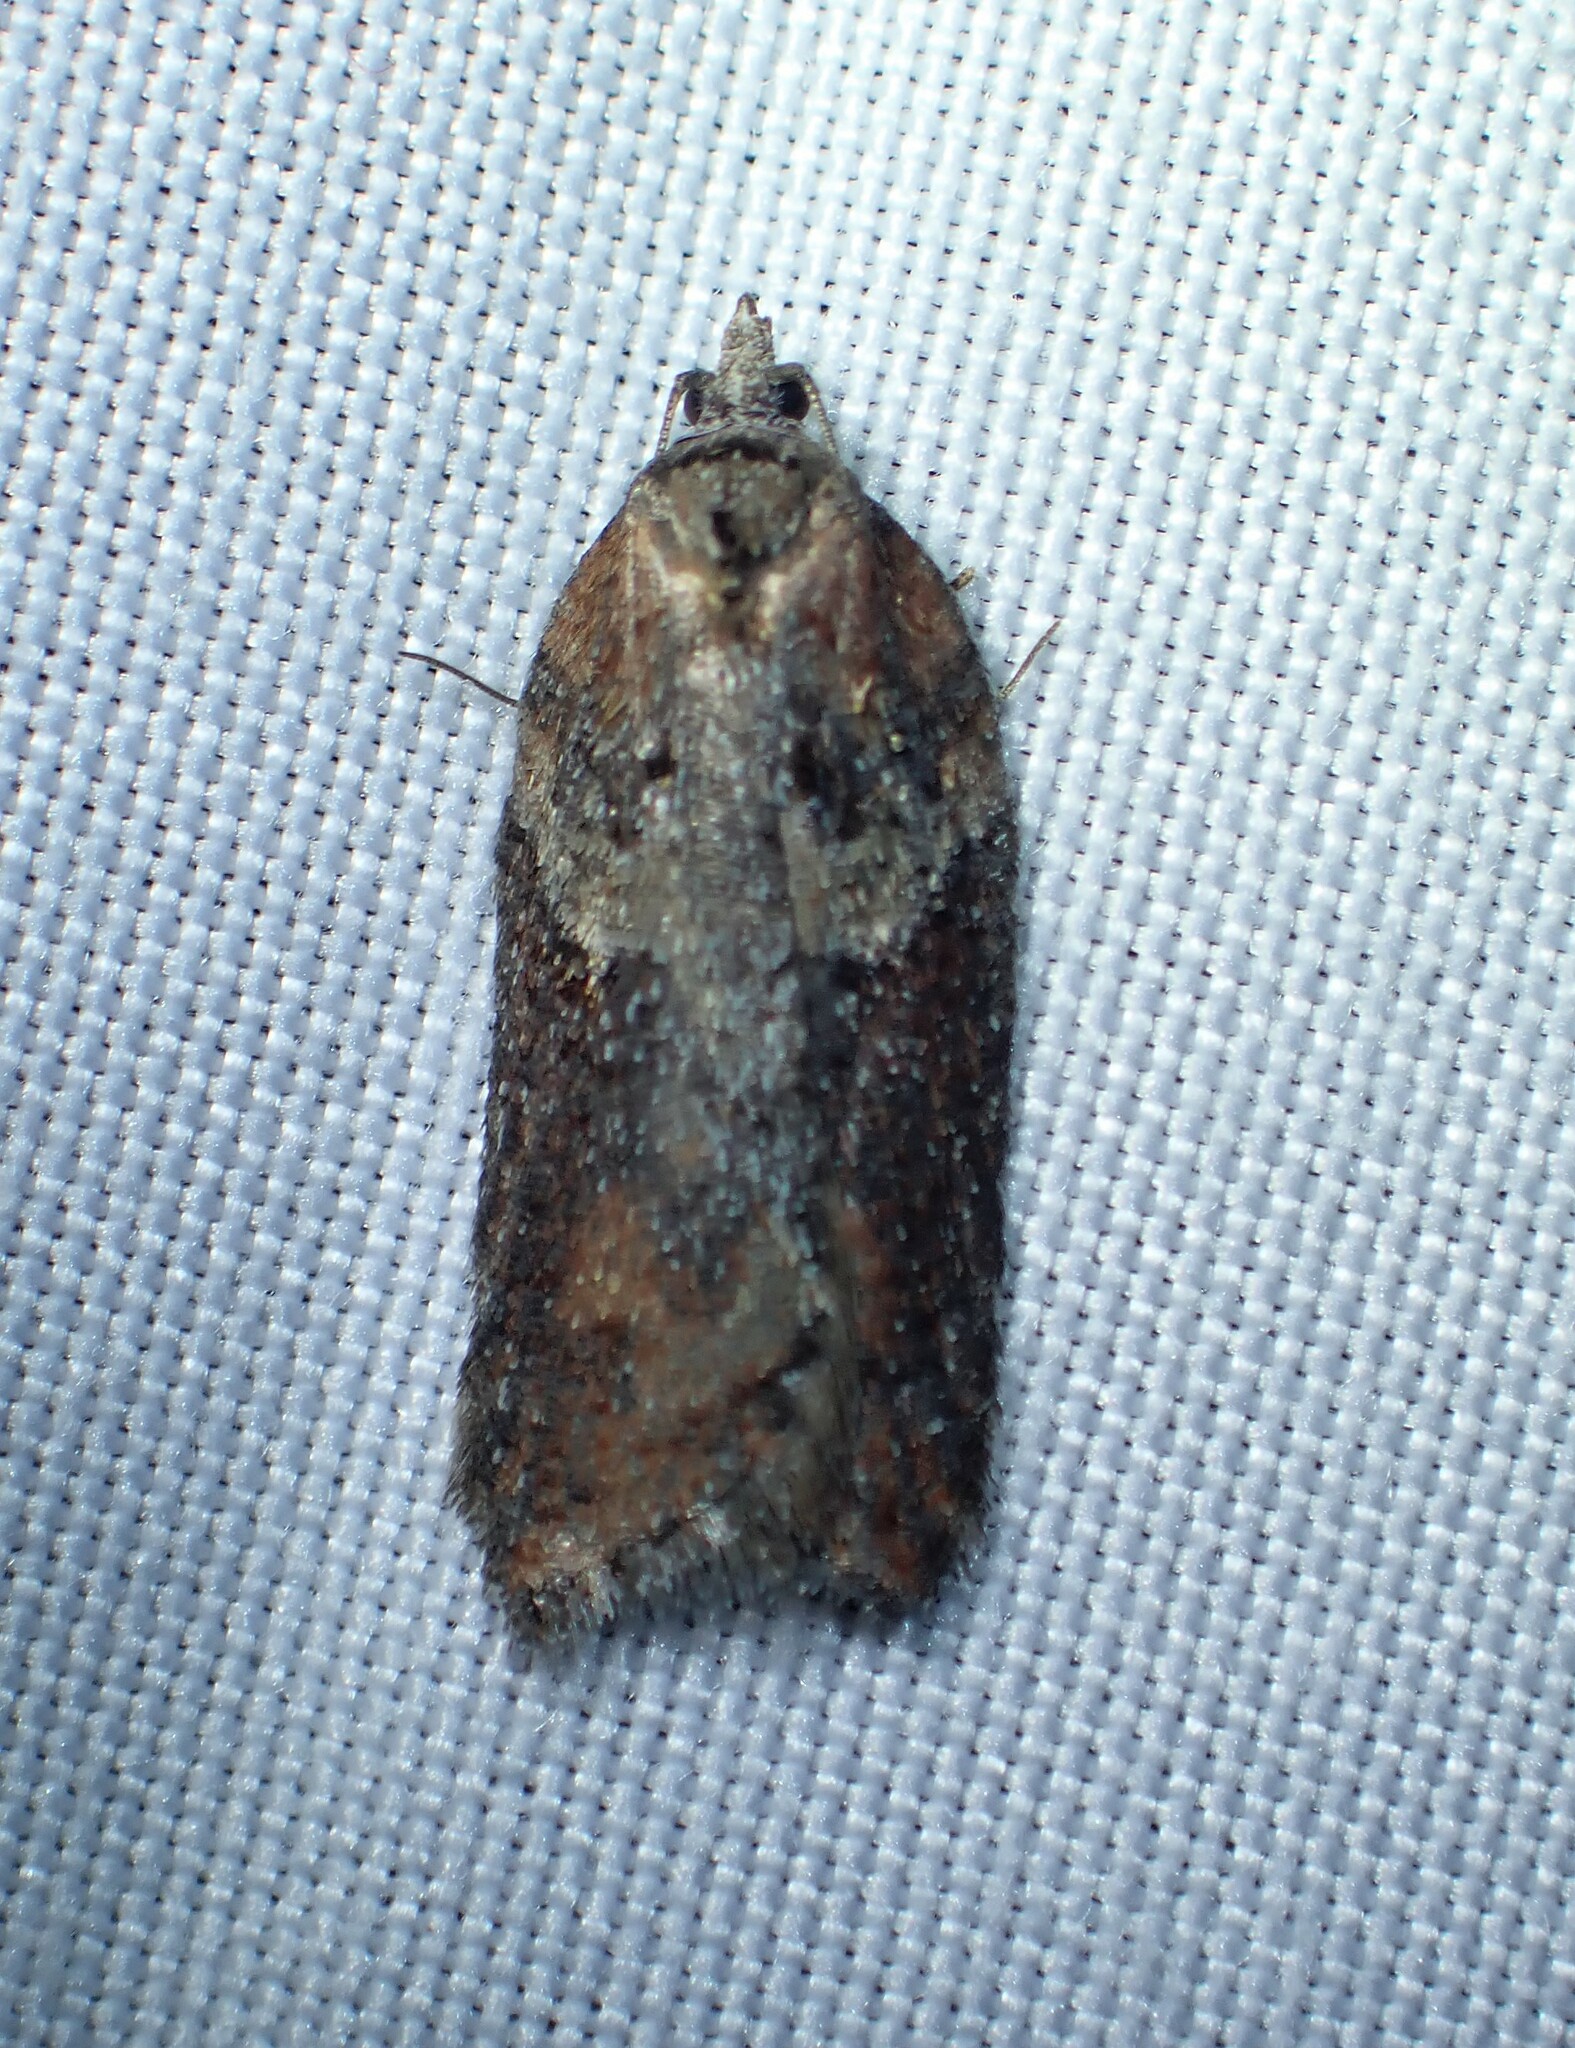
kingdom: Animalia
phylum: Arthropoda
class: Insecta
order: Lepidoptera
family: Tortricidae
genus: Acleris
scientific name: Acleris hastiana
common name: Sallow button
